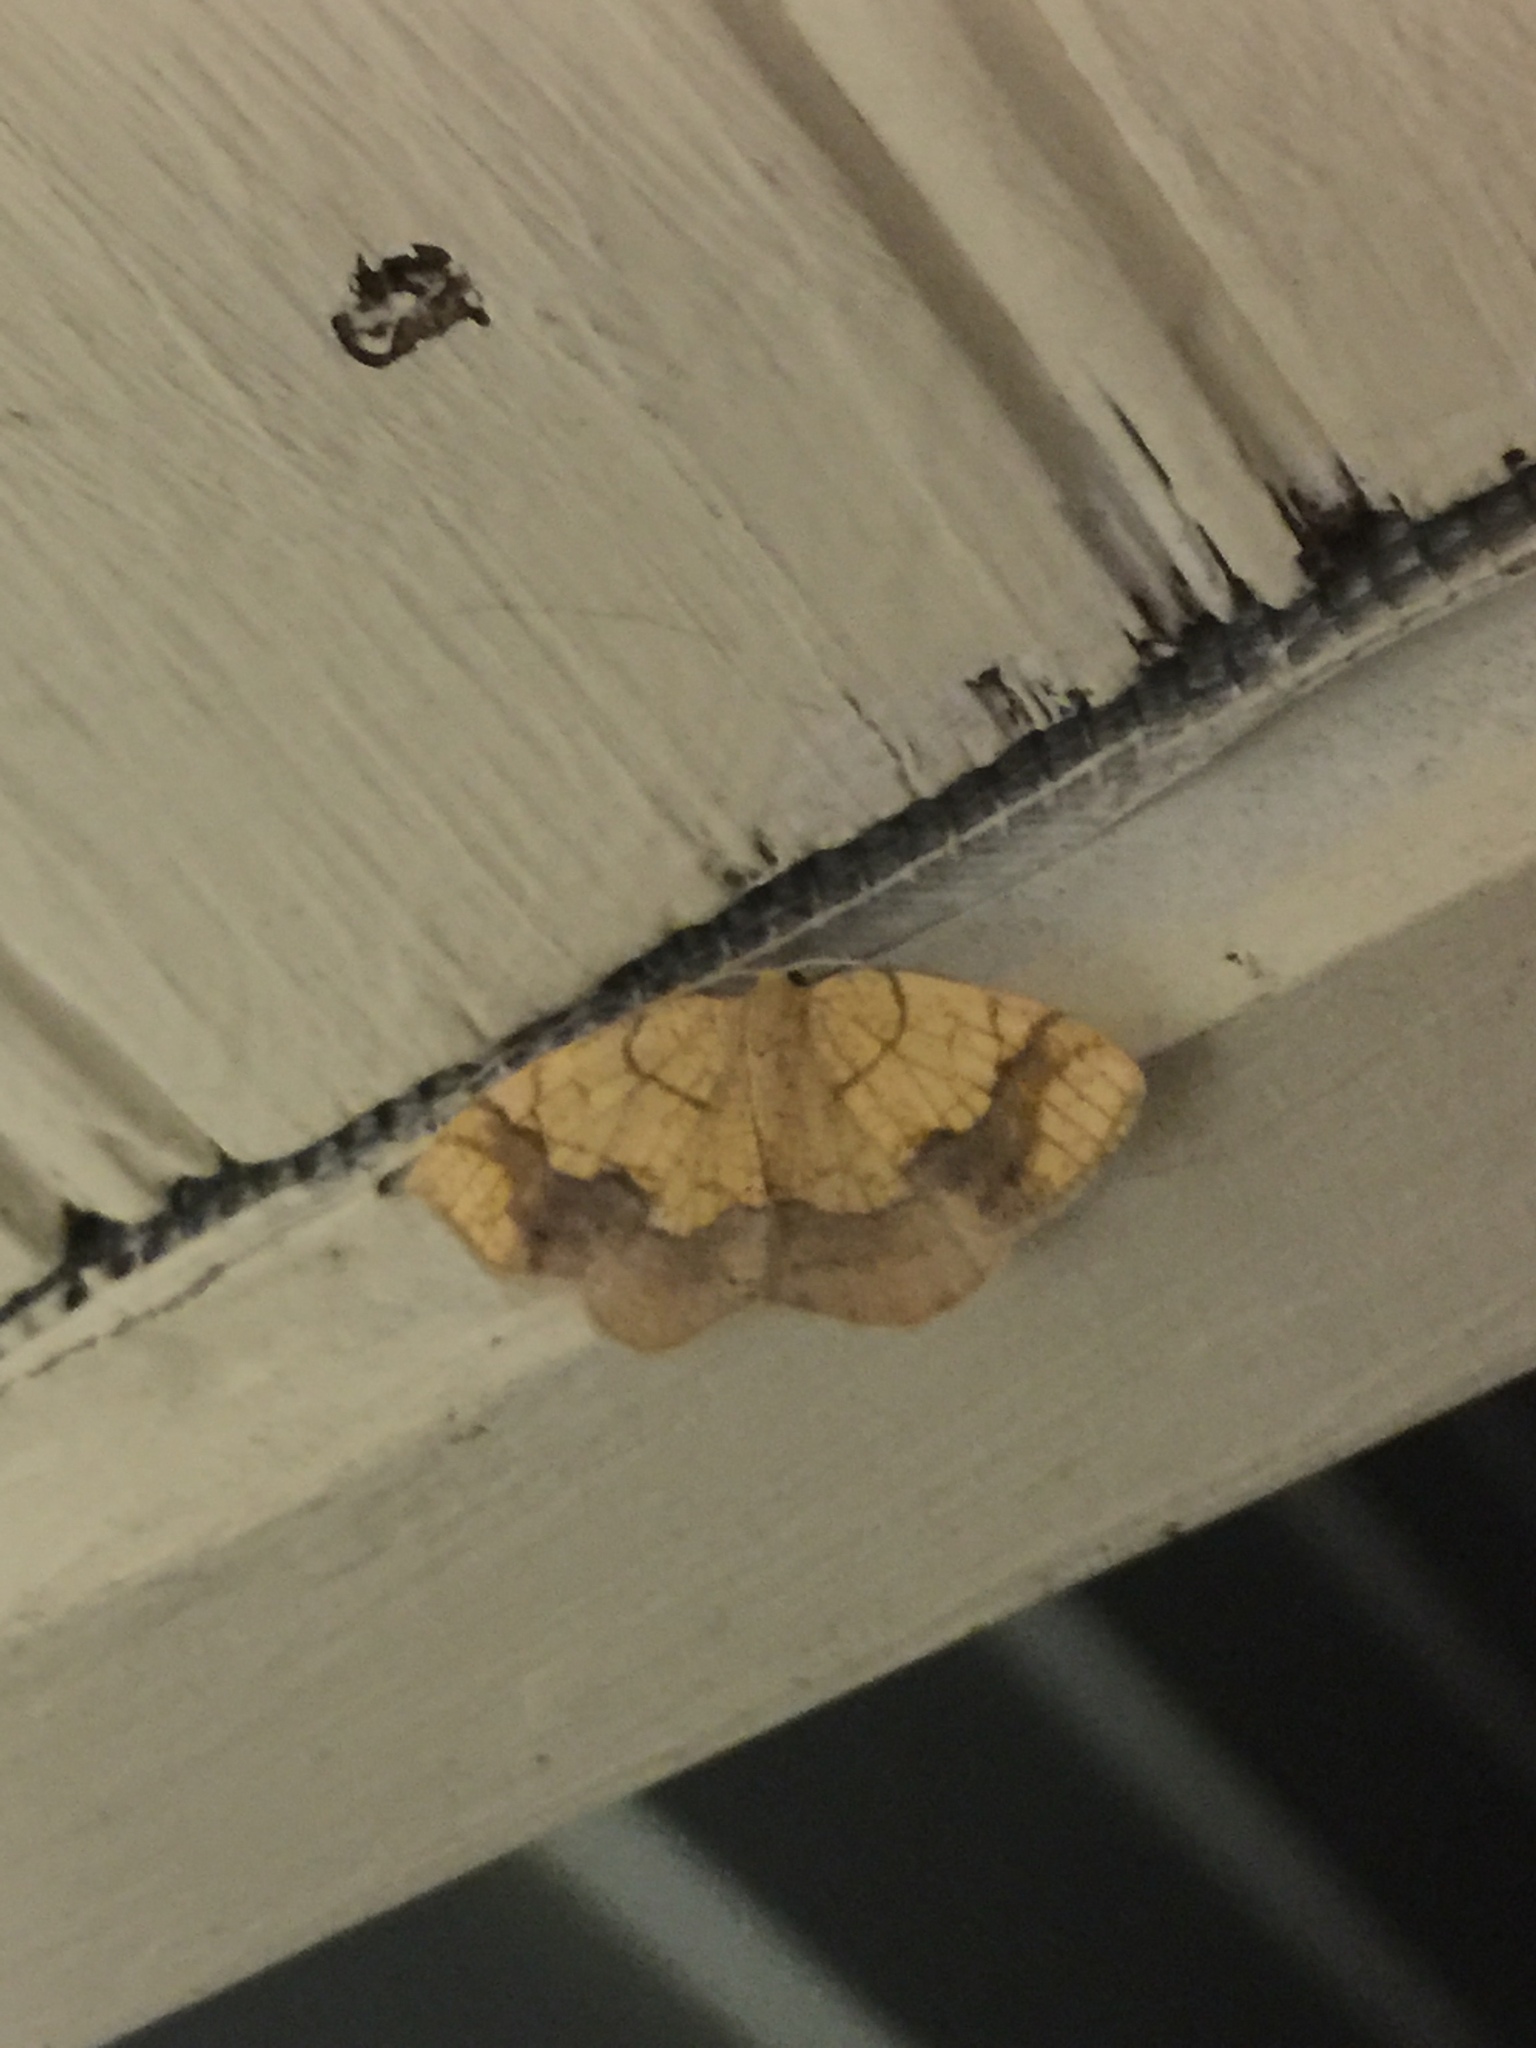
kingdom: Animalia
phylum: Arthropoda
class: Insecta
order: Lepidoptera
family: Geometridae
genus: Nematocampa
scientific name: Nematocampa resistaria
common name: Horned spanworm moth
